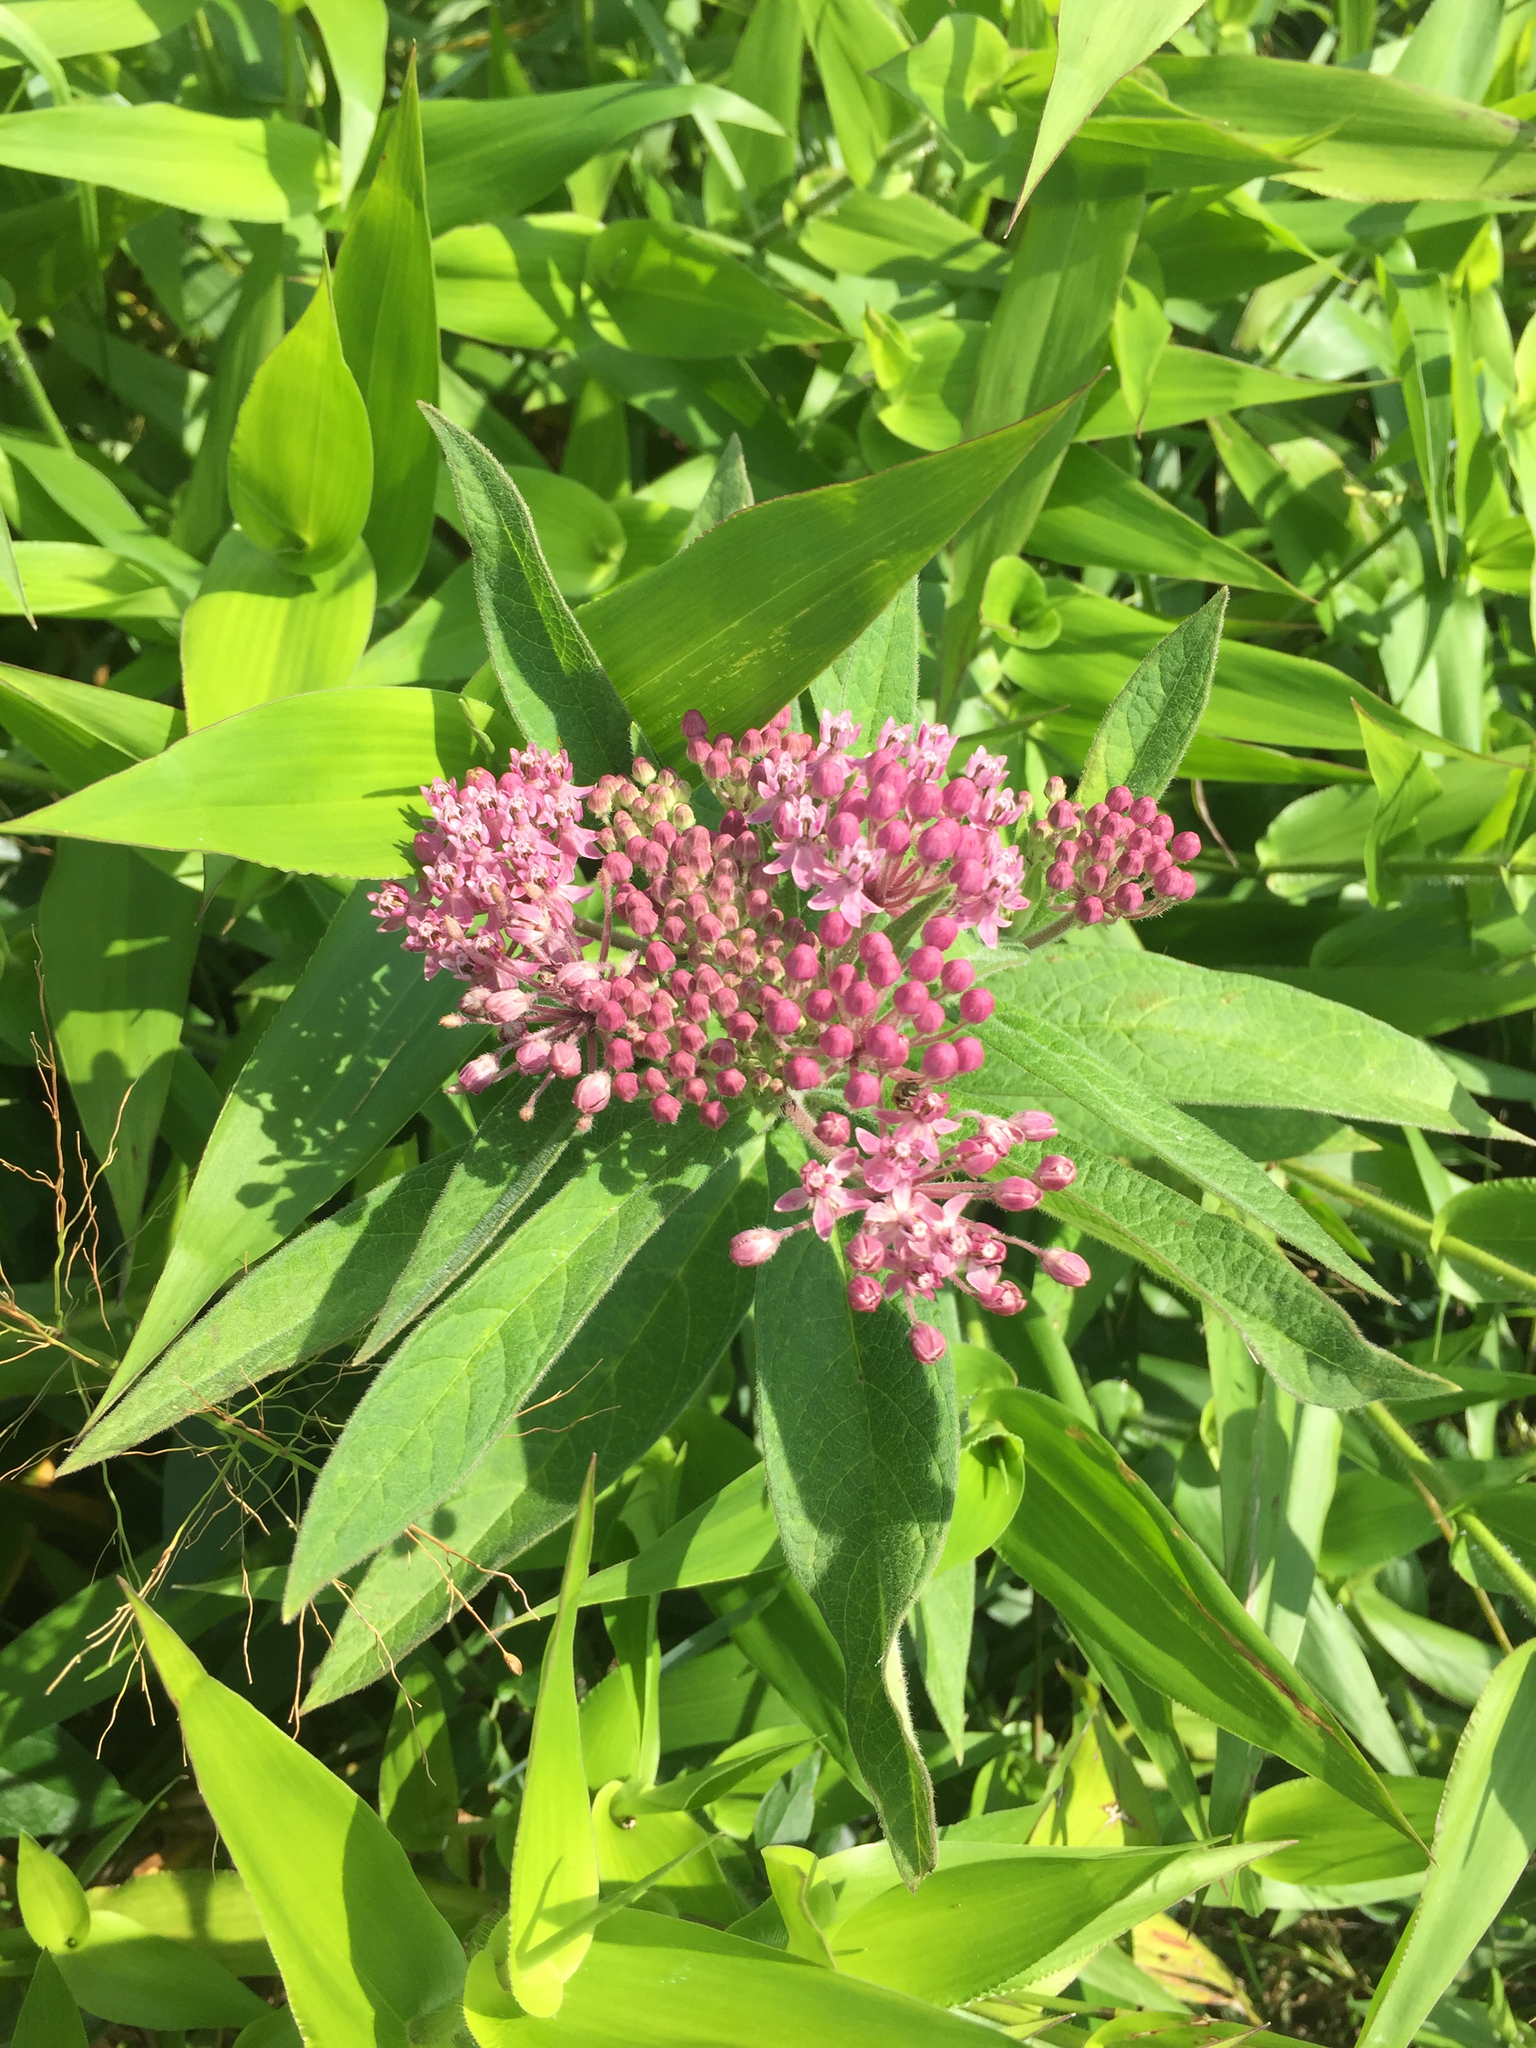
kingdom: Plantae
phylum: Tracheophyta
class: Magnoliopsida
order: Gentianales
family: Apocynaceae
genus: Asclepias
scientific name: Asclepias incarnata
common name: Swamp milkweed
